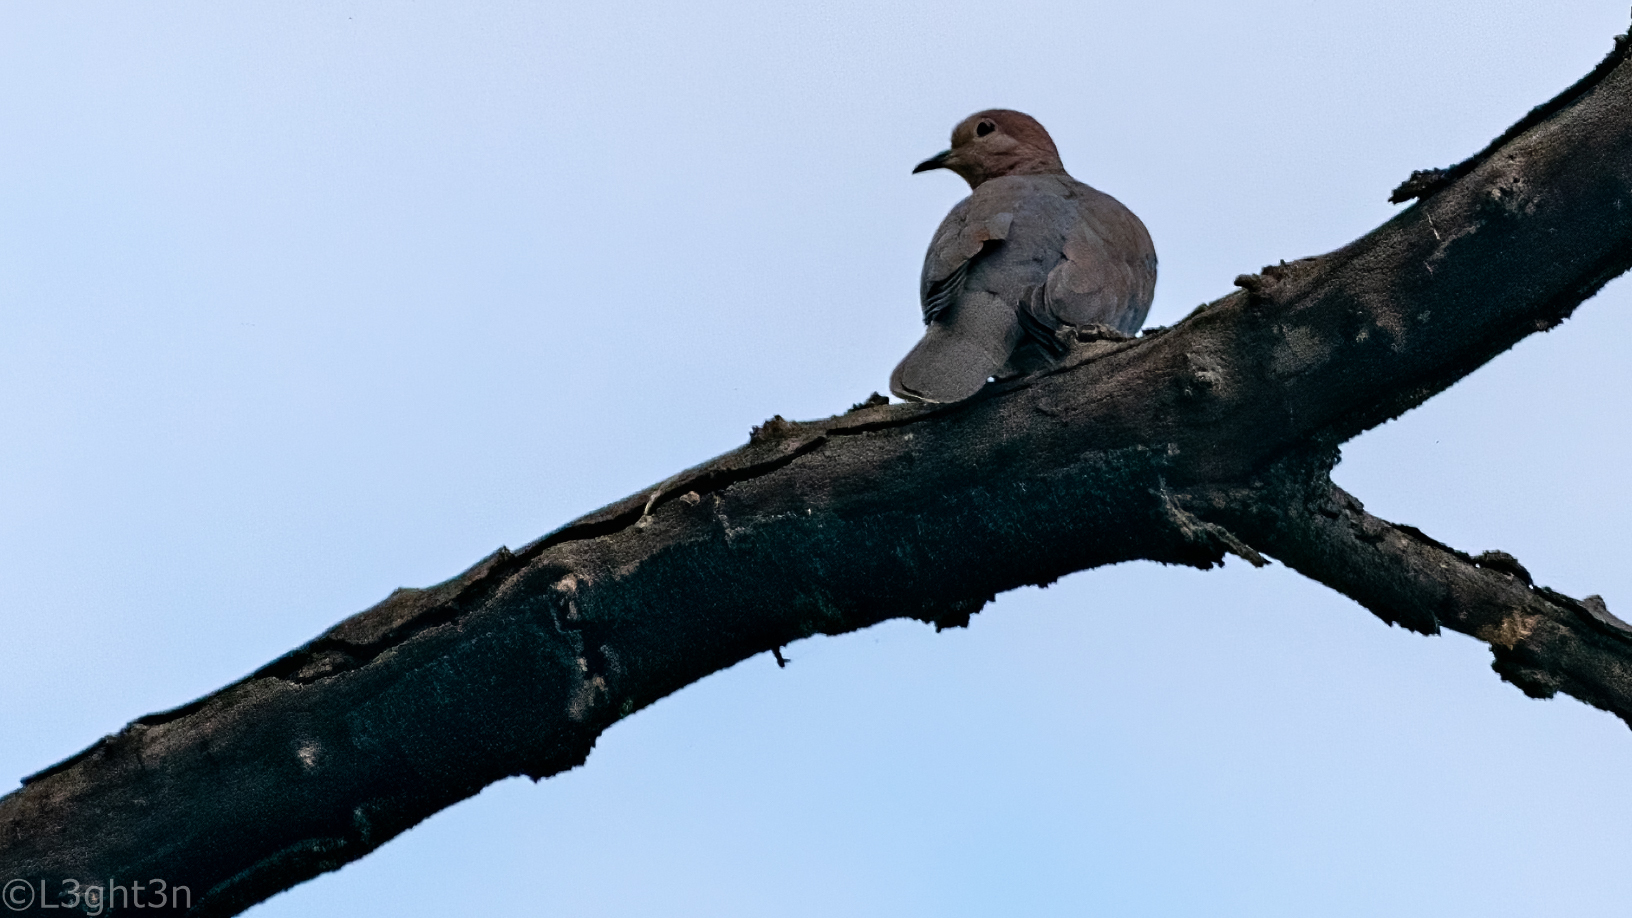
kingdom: Animalia
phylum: Chordata
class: Aves
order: Columbiformes
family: Columbidae
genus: Spilopelia
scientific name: Spilopelia senegalensis
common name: Laughing dove
